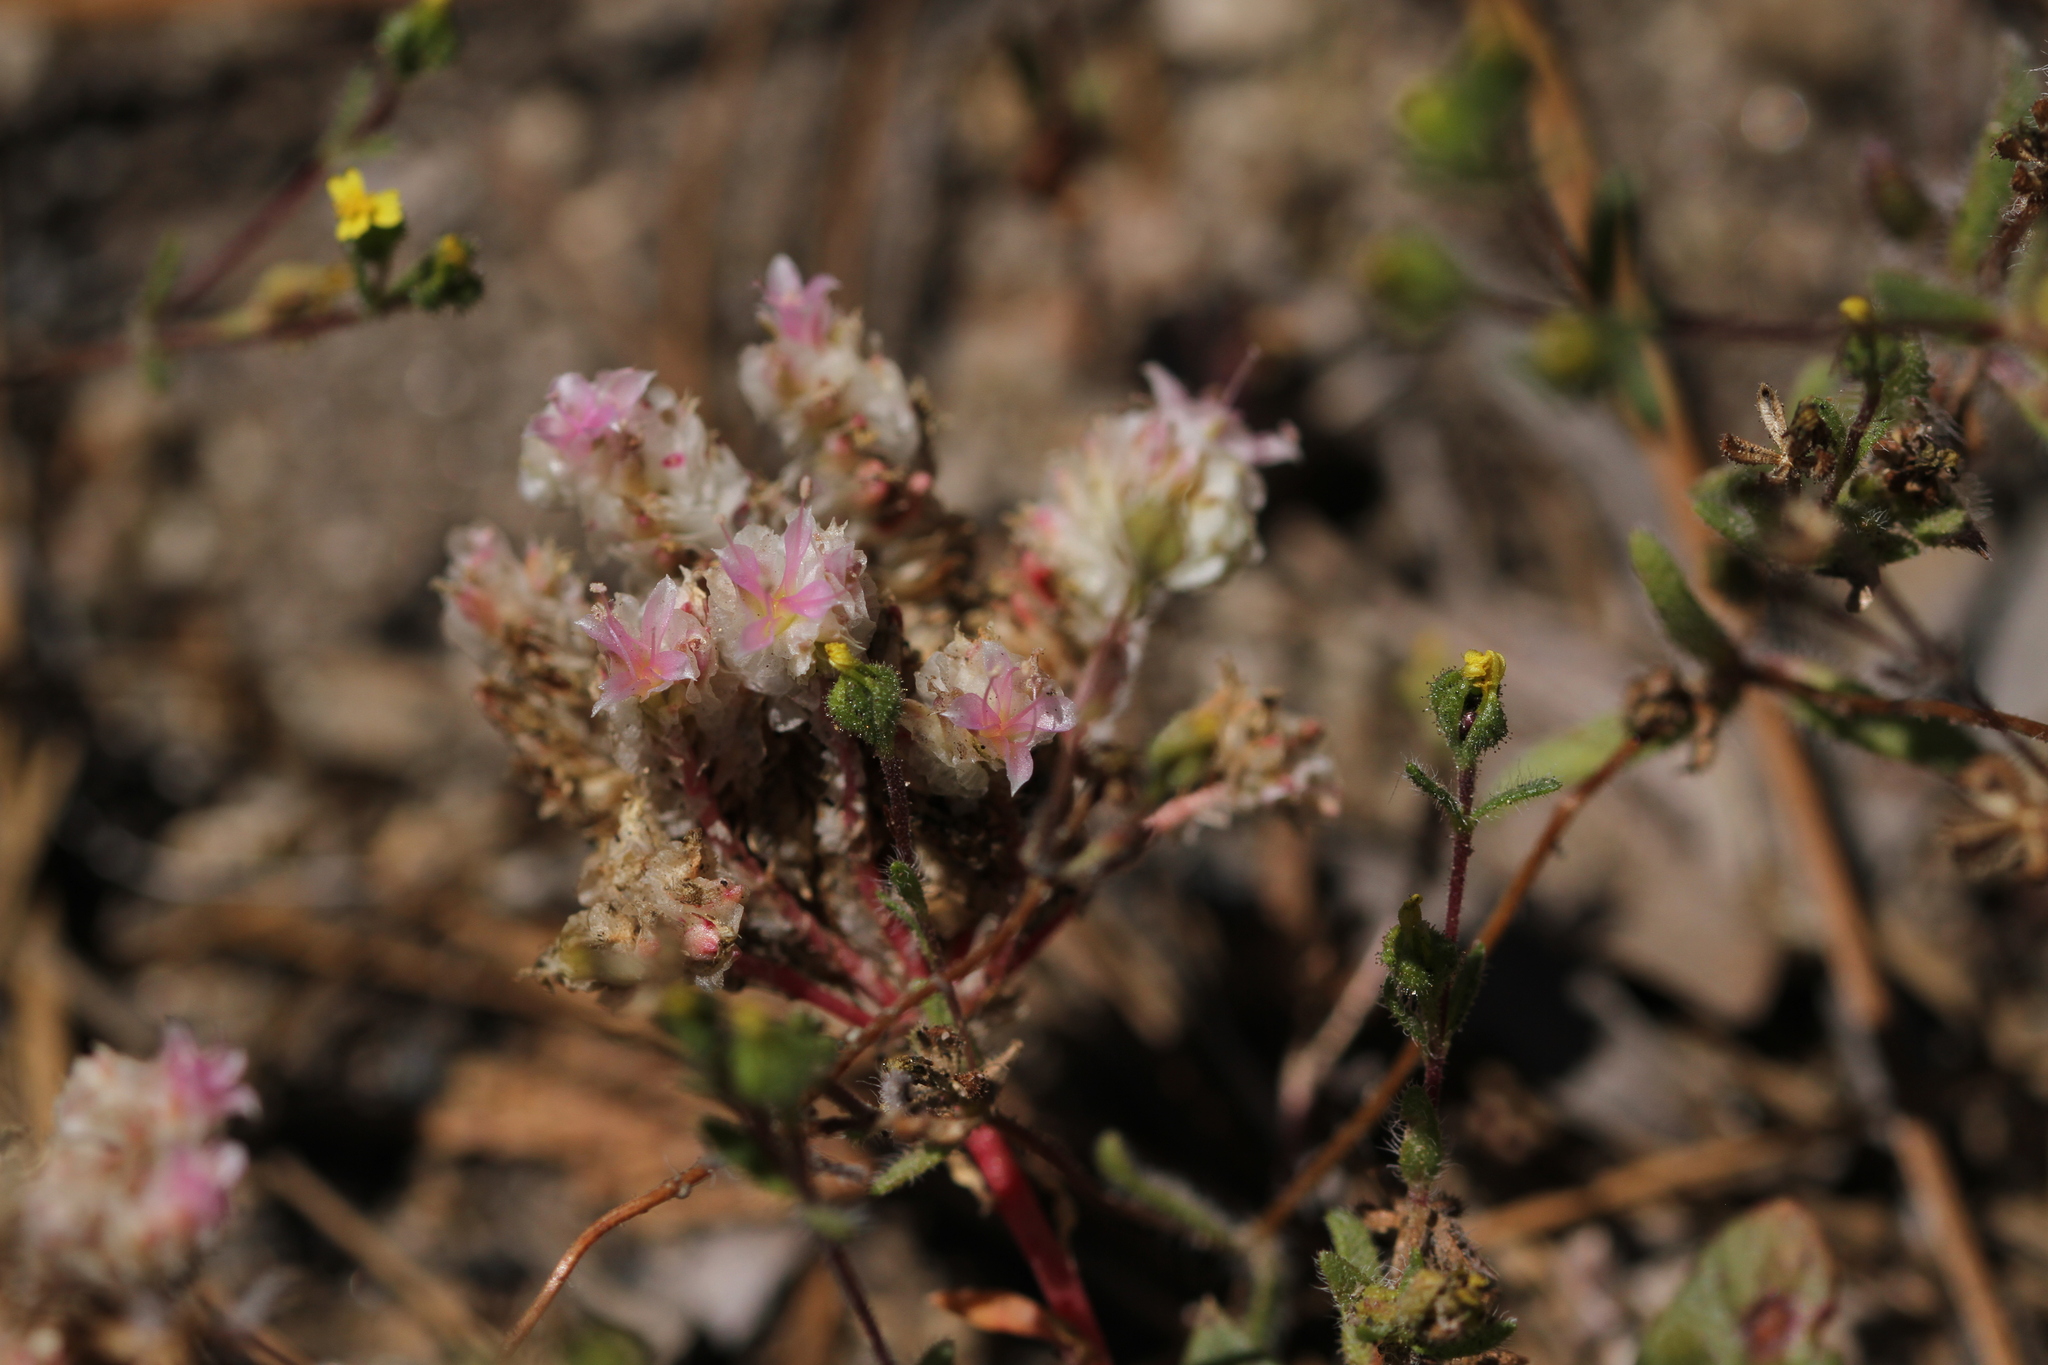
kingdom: Plantae
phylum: Tracheophyta
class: Magnoliopsida
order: Asterales
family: Asteraceae
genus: Hemizonella
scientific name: Hemizonella minima
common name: Opposite-leaved tarweed
